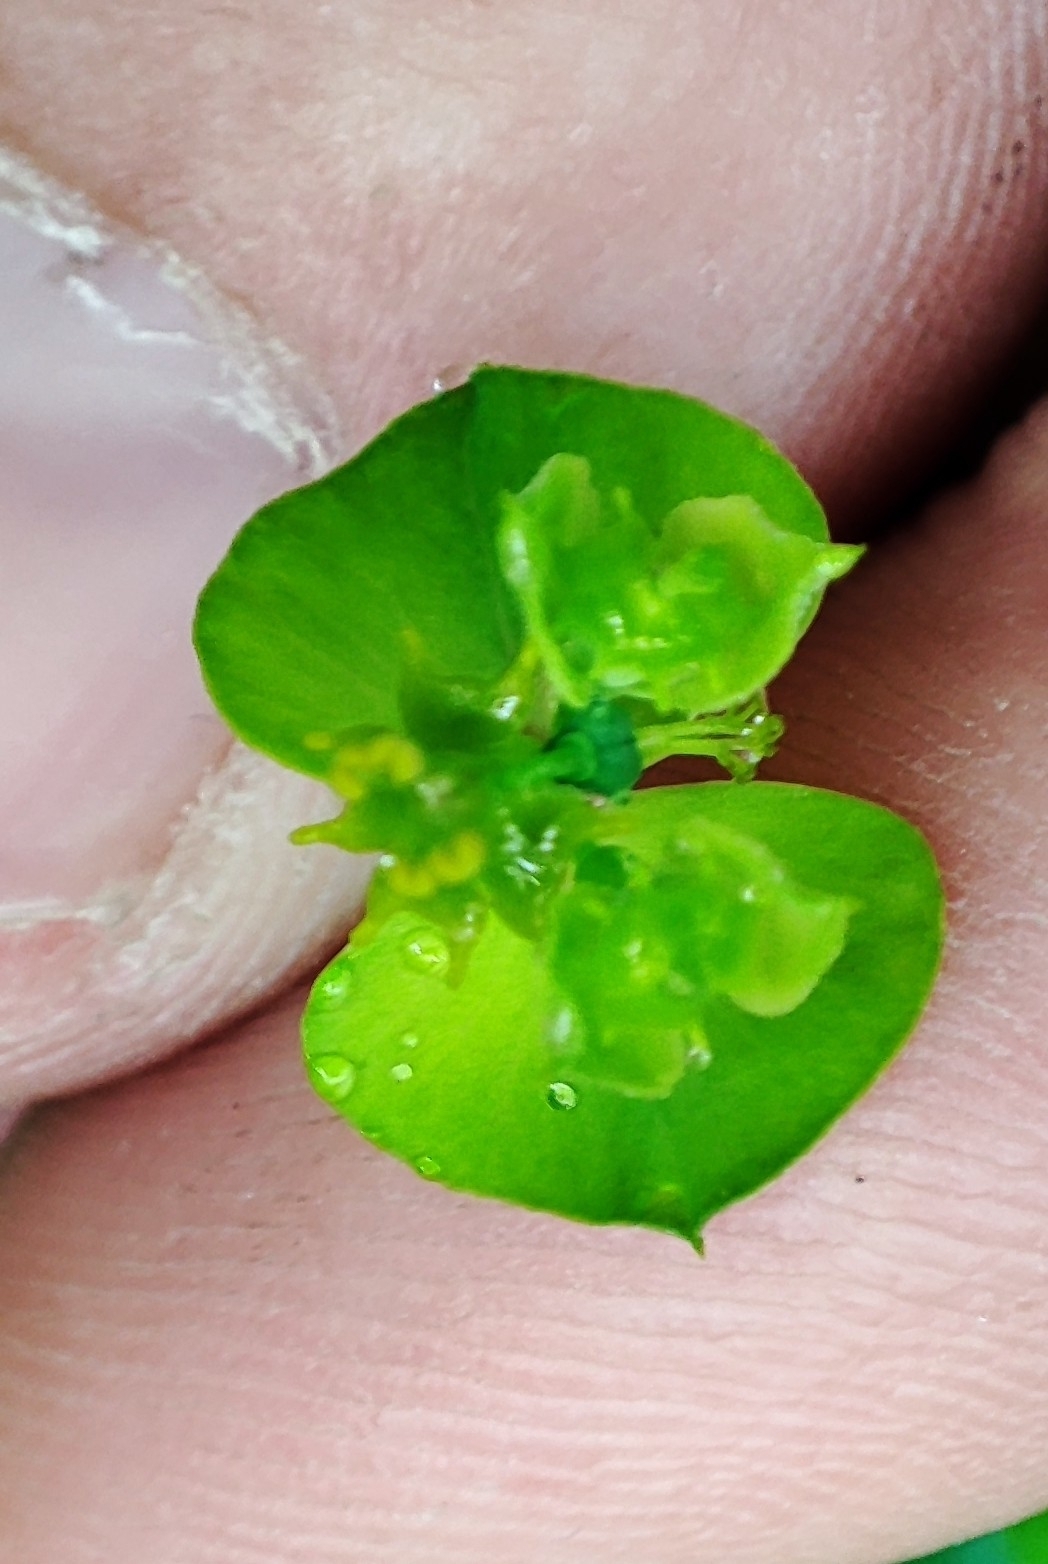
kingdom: Plantae
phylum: Tracheophyta
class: Magnoliopsida
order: Malpighiales
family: Euphorbiaceae
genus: Euphorbia
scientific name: Euphorbia borealis
